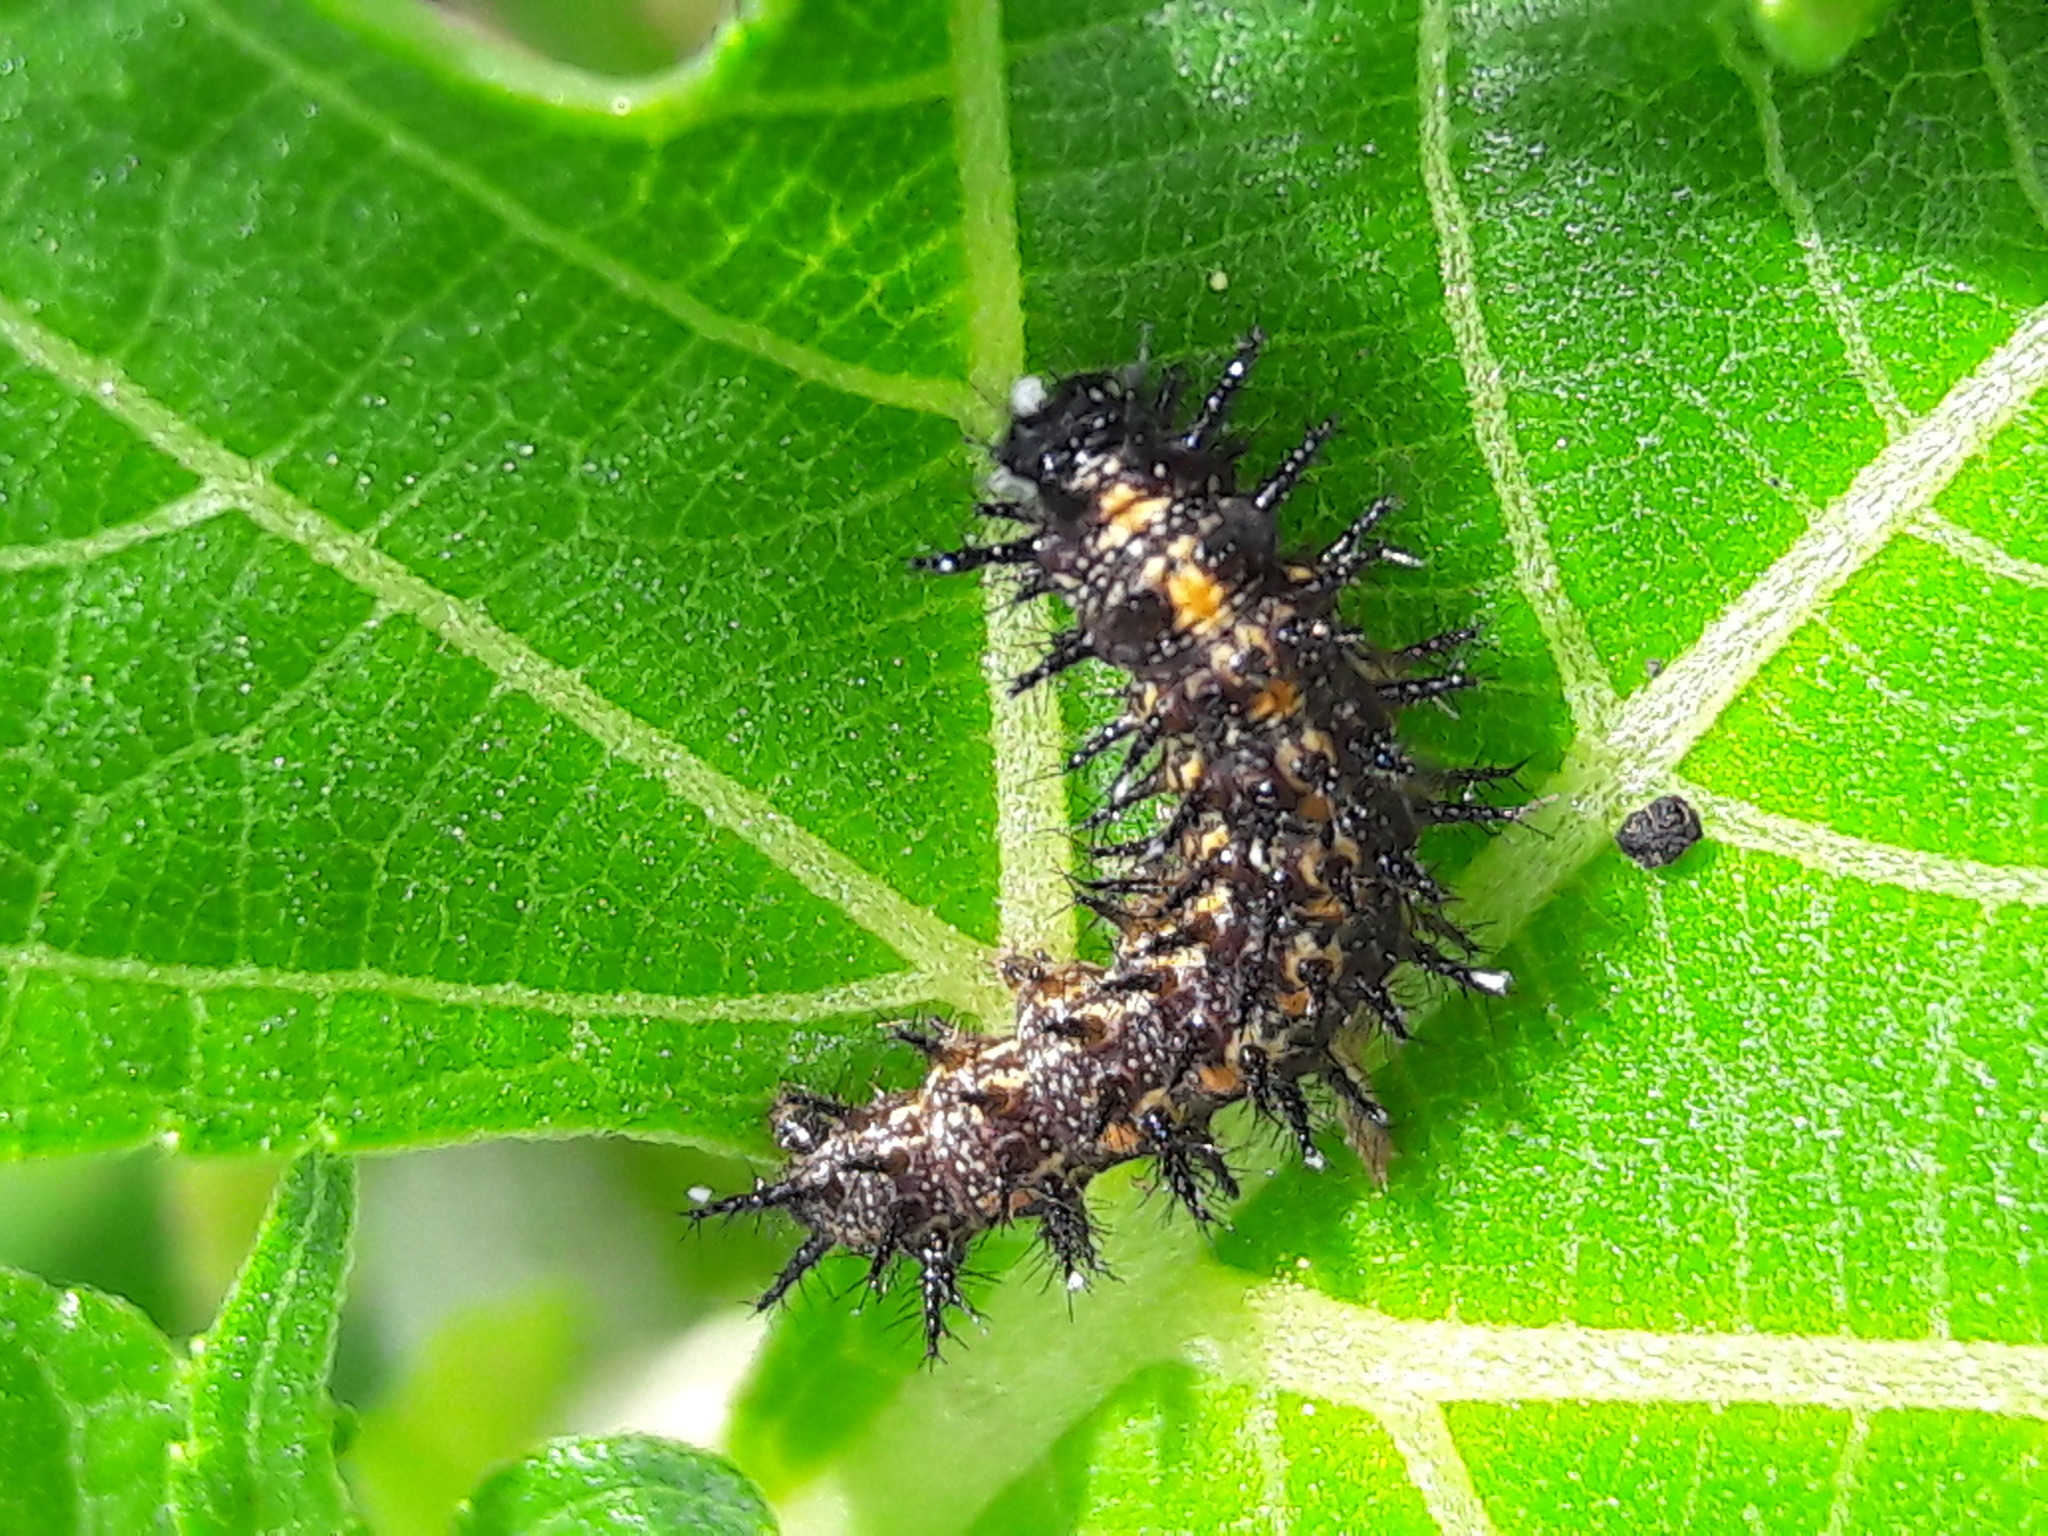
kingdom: Animalia
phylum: Arthropoda
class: Insecta
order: Lepidoptera
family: Nymphalidae
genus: Dione
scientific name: Dione vanillae
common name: Gulf fritillary
